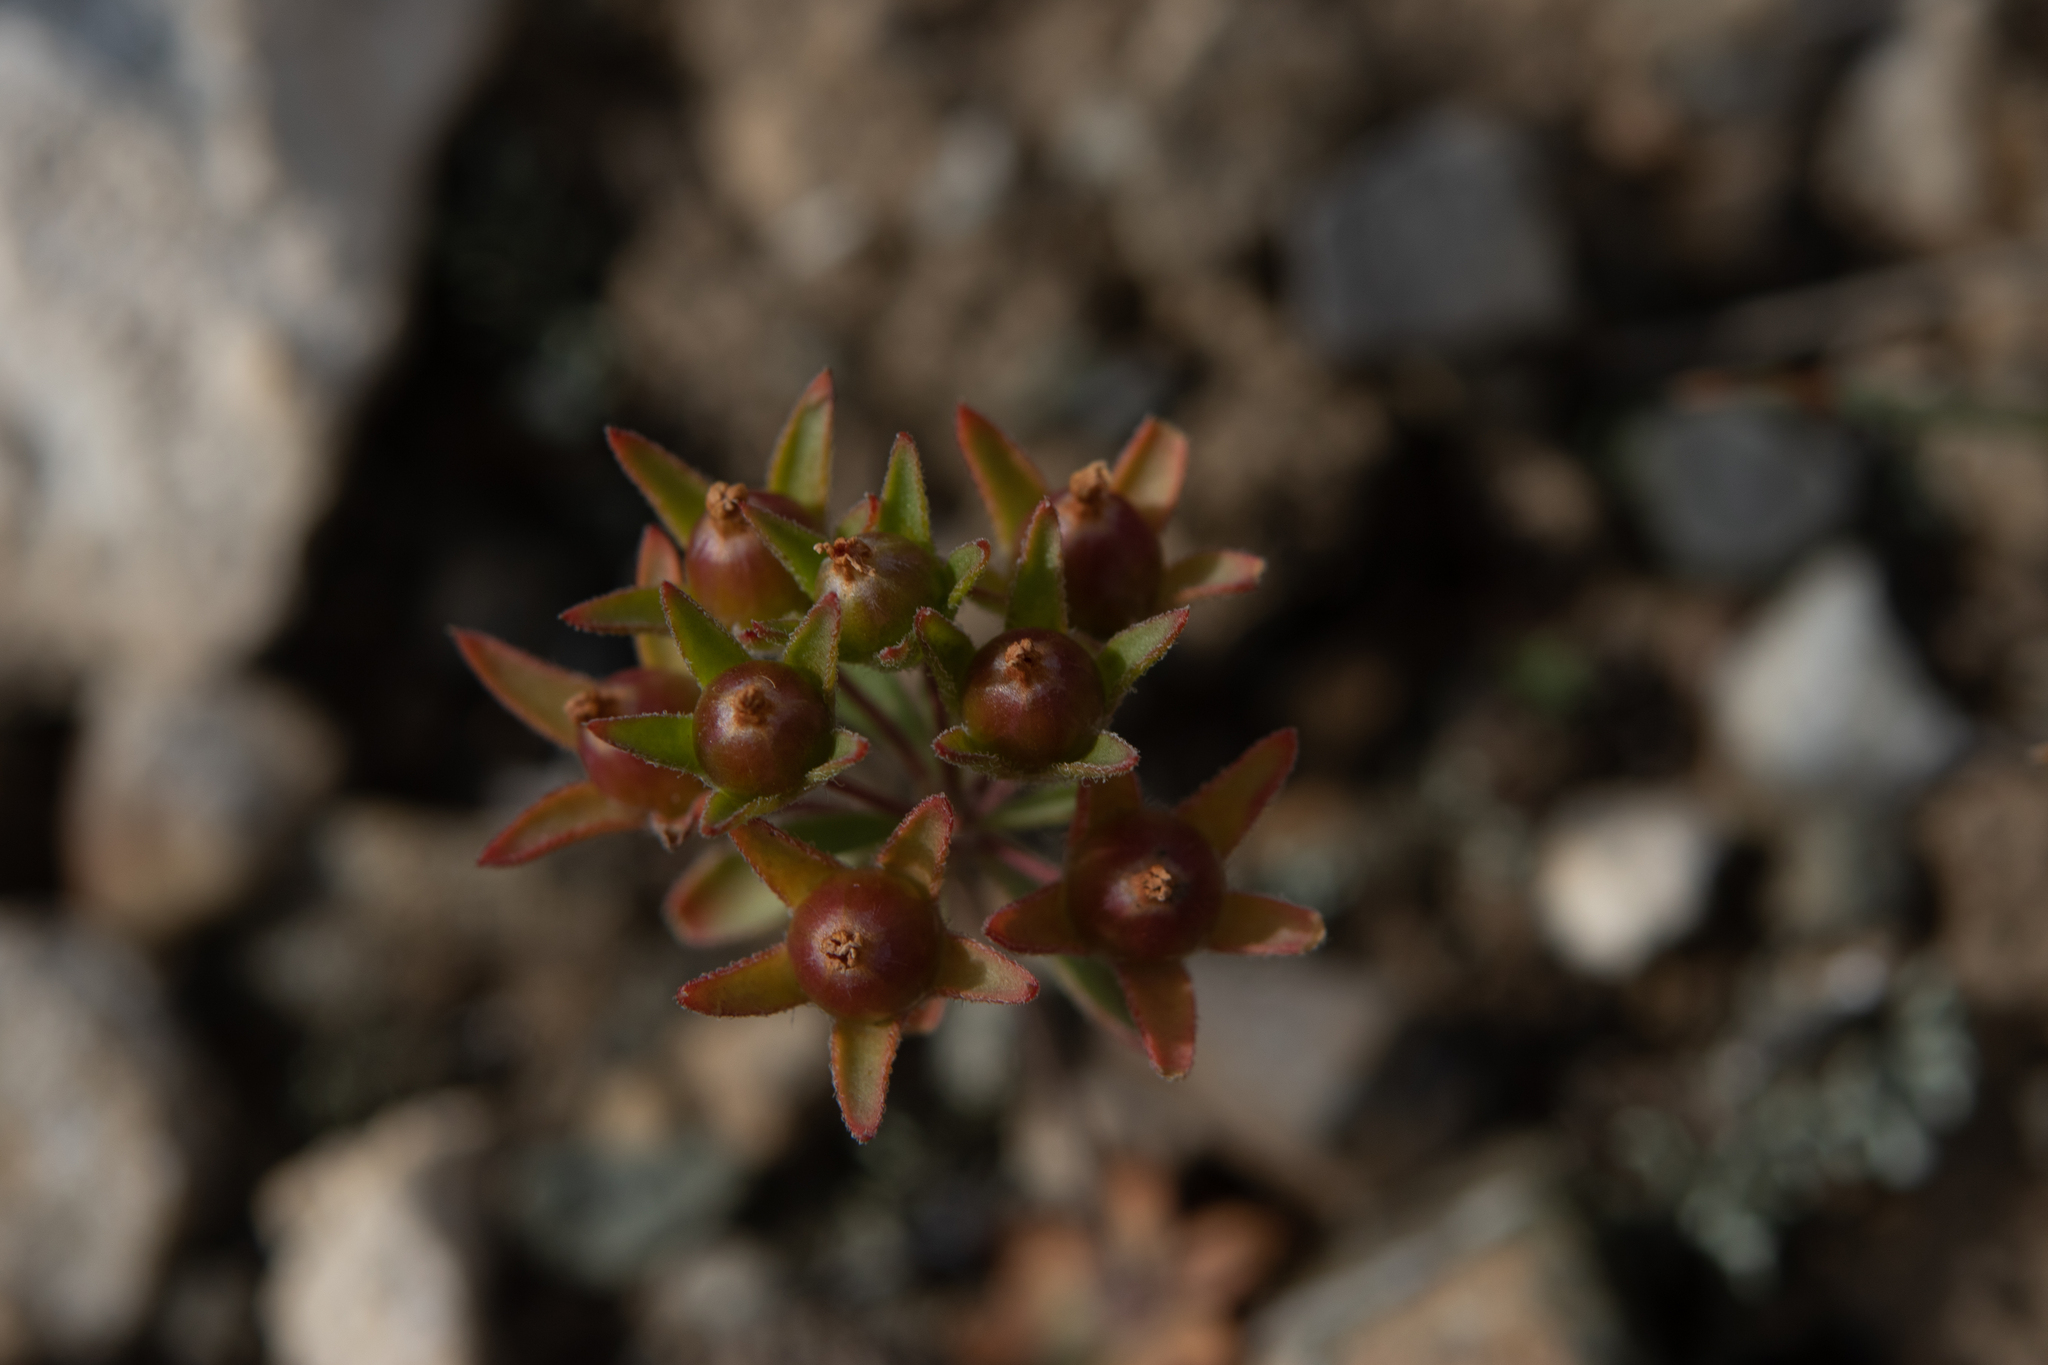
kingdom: Plantae
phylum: Tracheophyta
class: Magnoliopsida
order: Ericales
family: Primulaceae
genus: Androsace
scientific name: Androsace maxima
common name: Annual androsace
